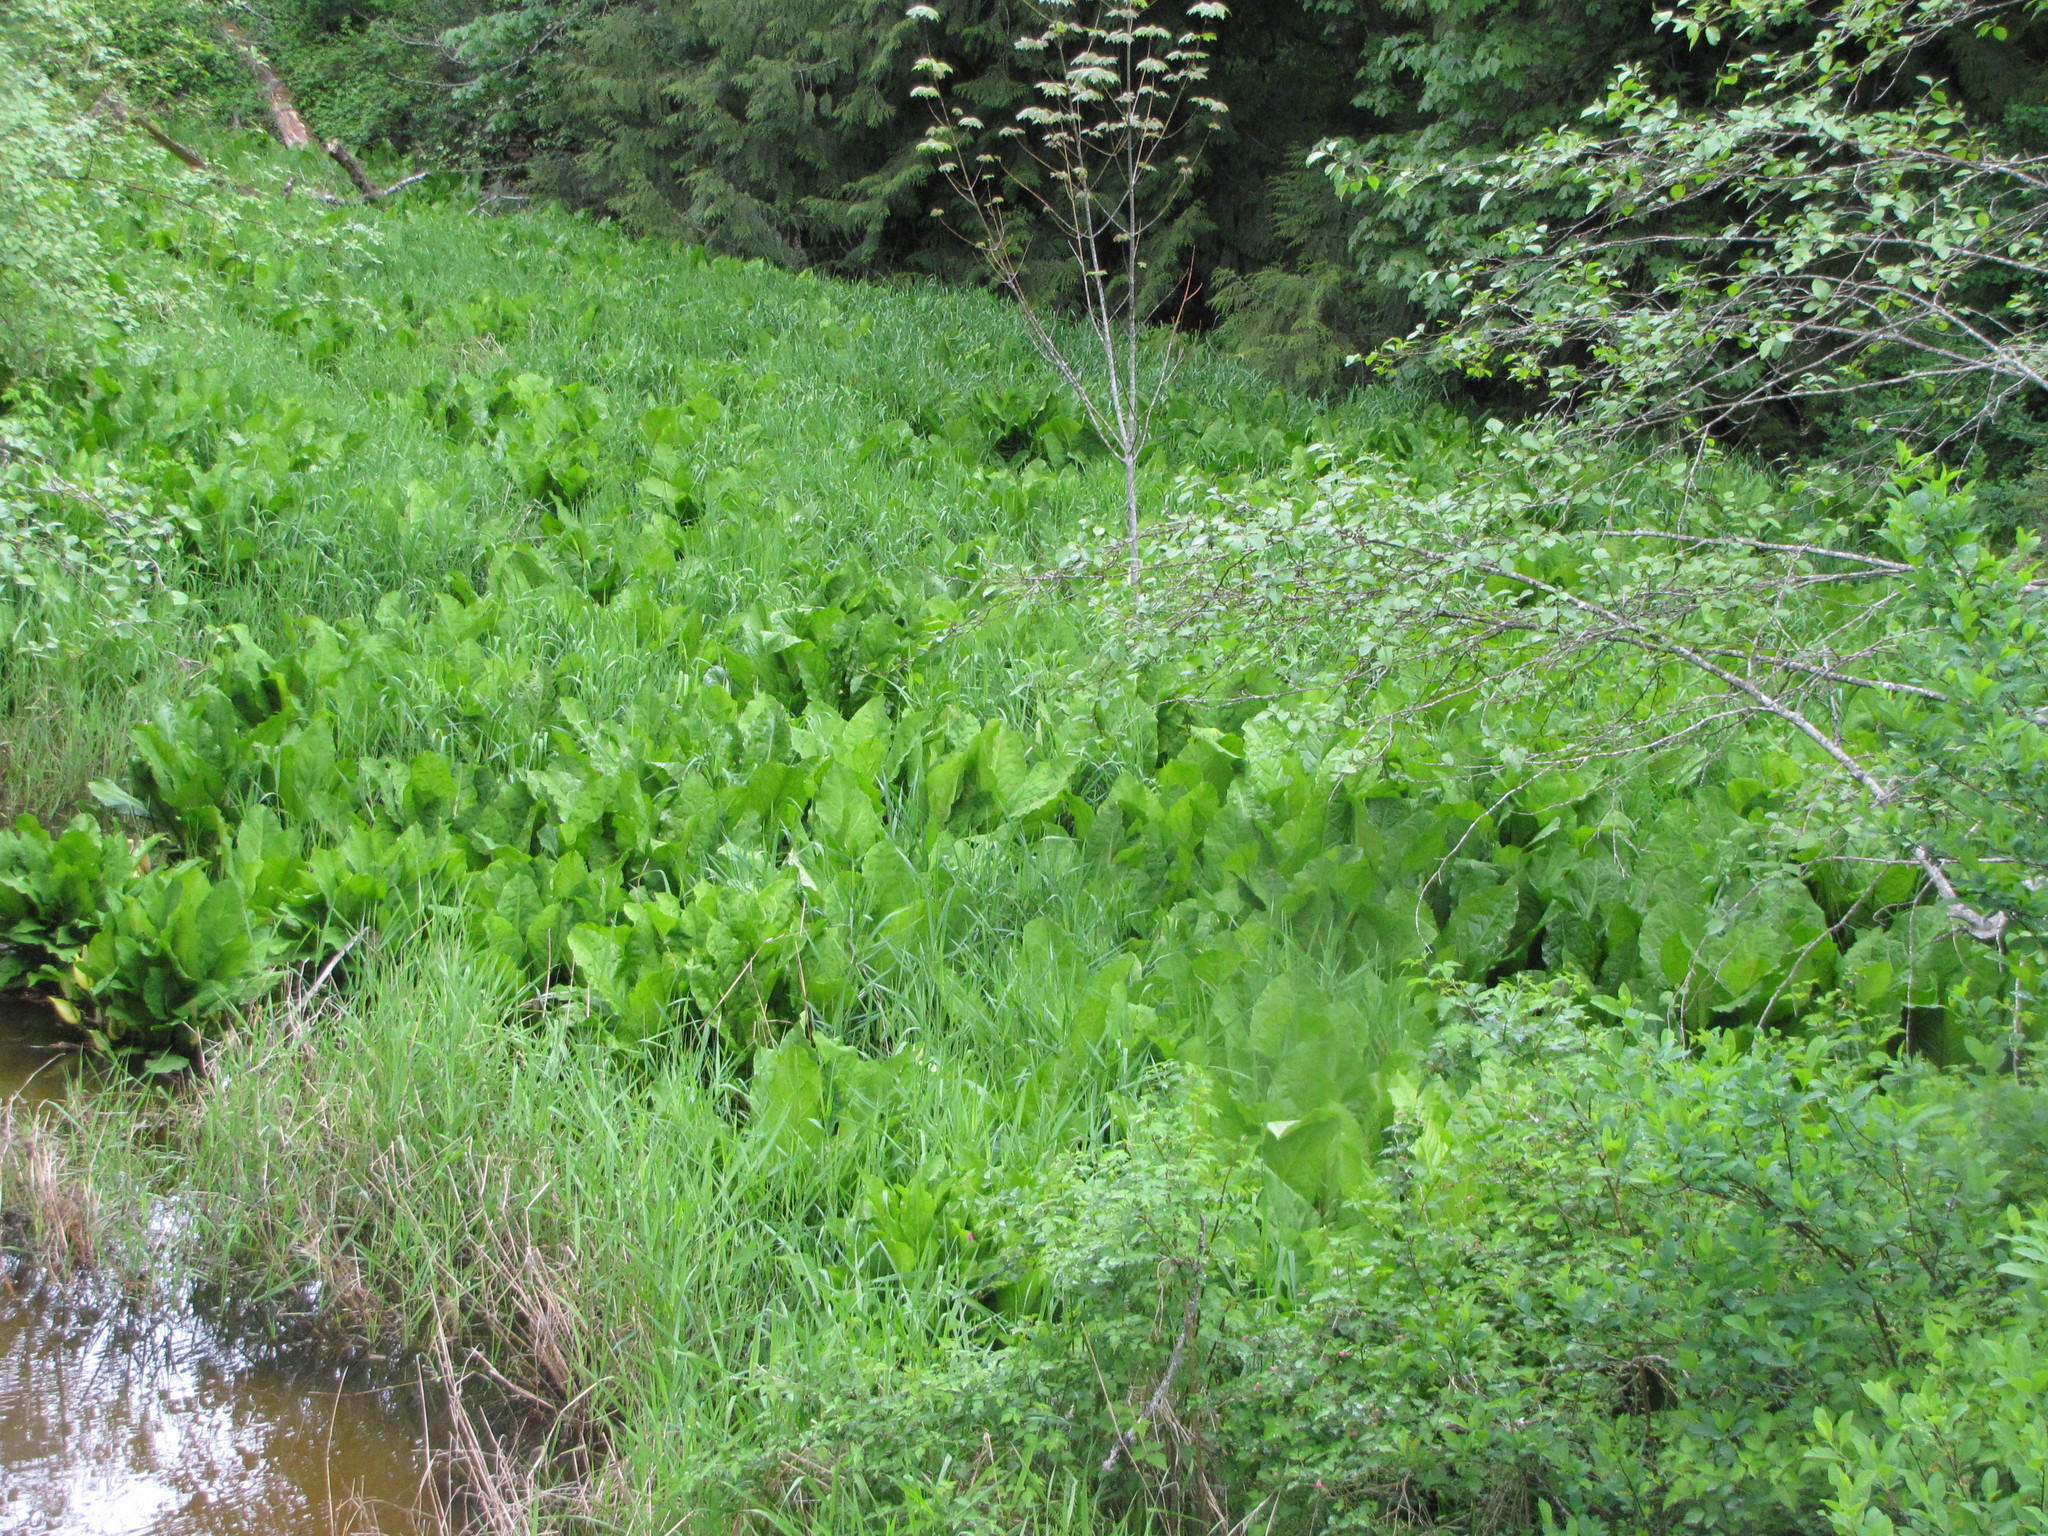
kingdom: Plantae
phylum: Tracheophyta
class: Liliopsida
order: Alismatales
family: Araceae
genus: Lysichiton
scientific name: Lysichiton americanus
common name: American skunk cabbage
